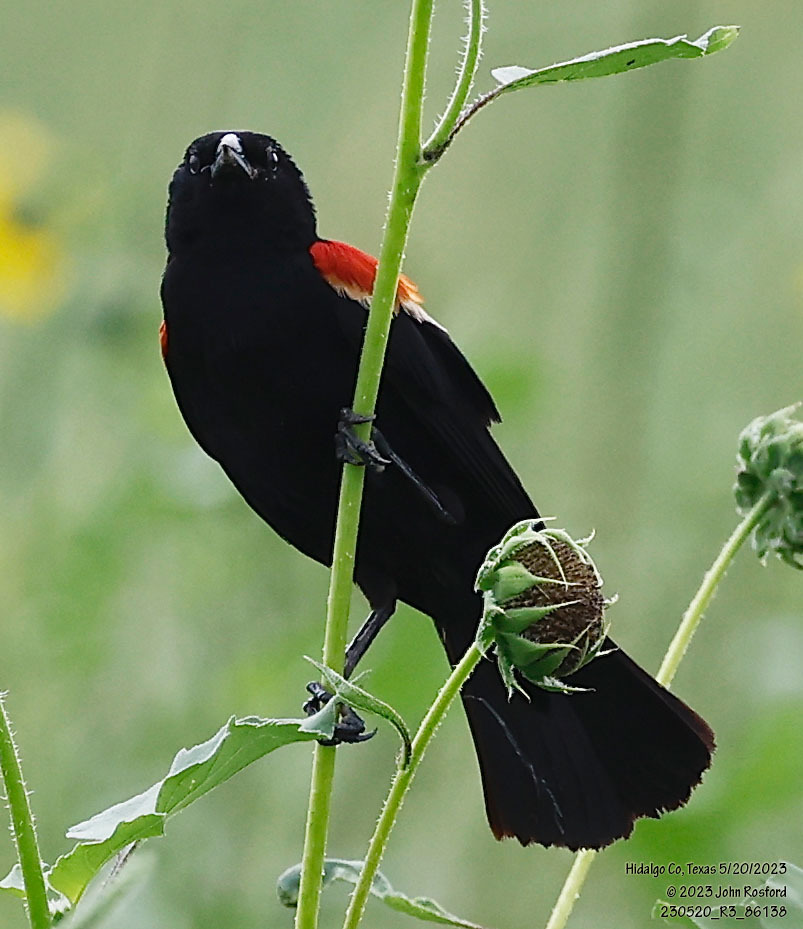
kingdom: Animalia
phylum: Chordata
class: Aves
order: Passeriformes
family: Icteridae
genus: Agelaius
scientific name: Agelaius phoeniceus
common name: Red-winged blackbird
